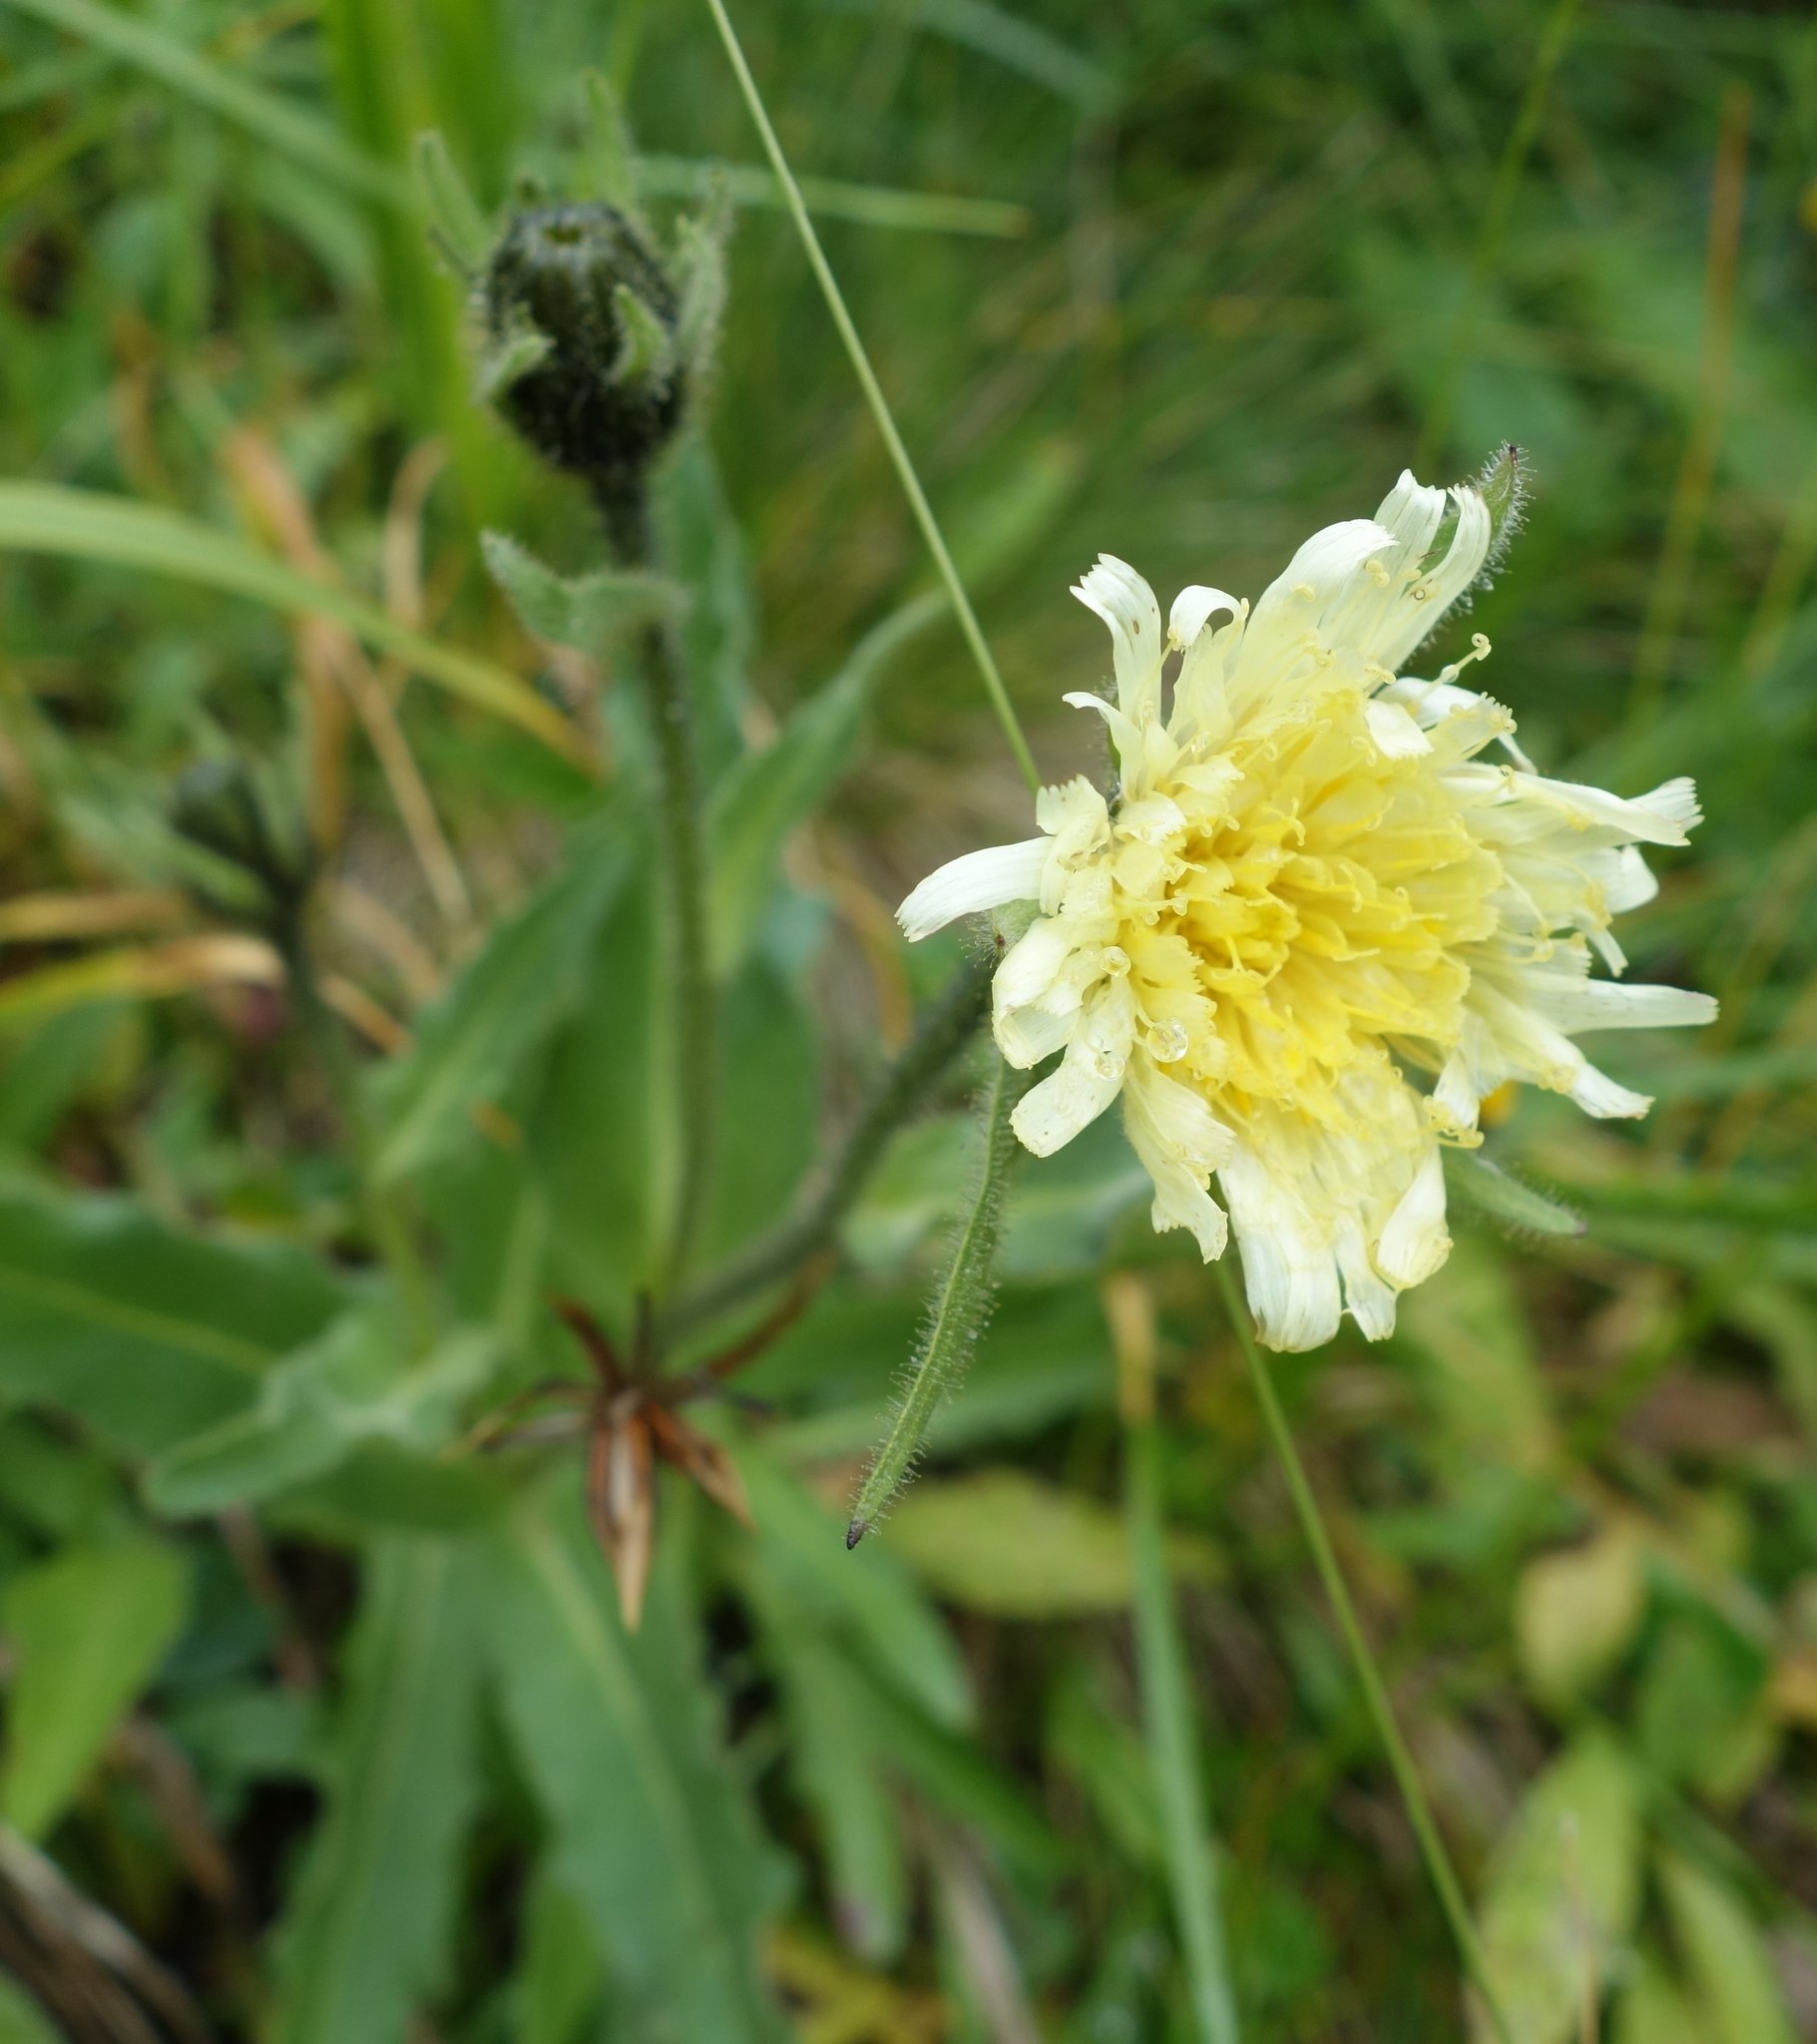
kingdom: Plantae
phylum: Tracheophyta
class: Magnoliopsida
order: Asterales
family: Asteraceae
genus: Schlagintweitia
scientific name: Schlagintweitia intybacea
